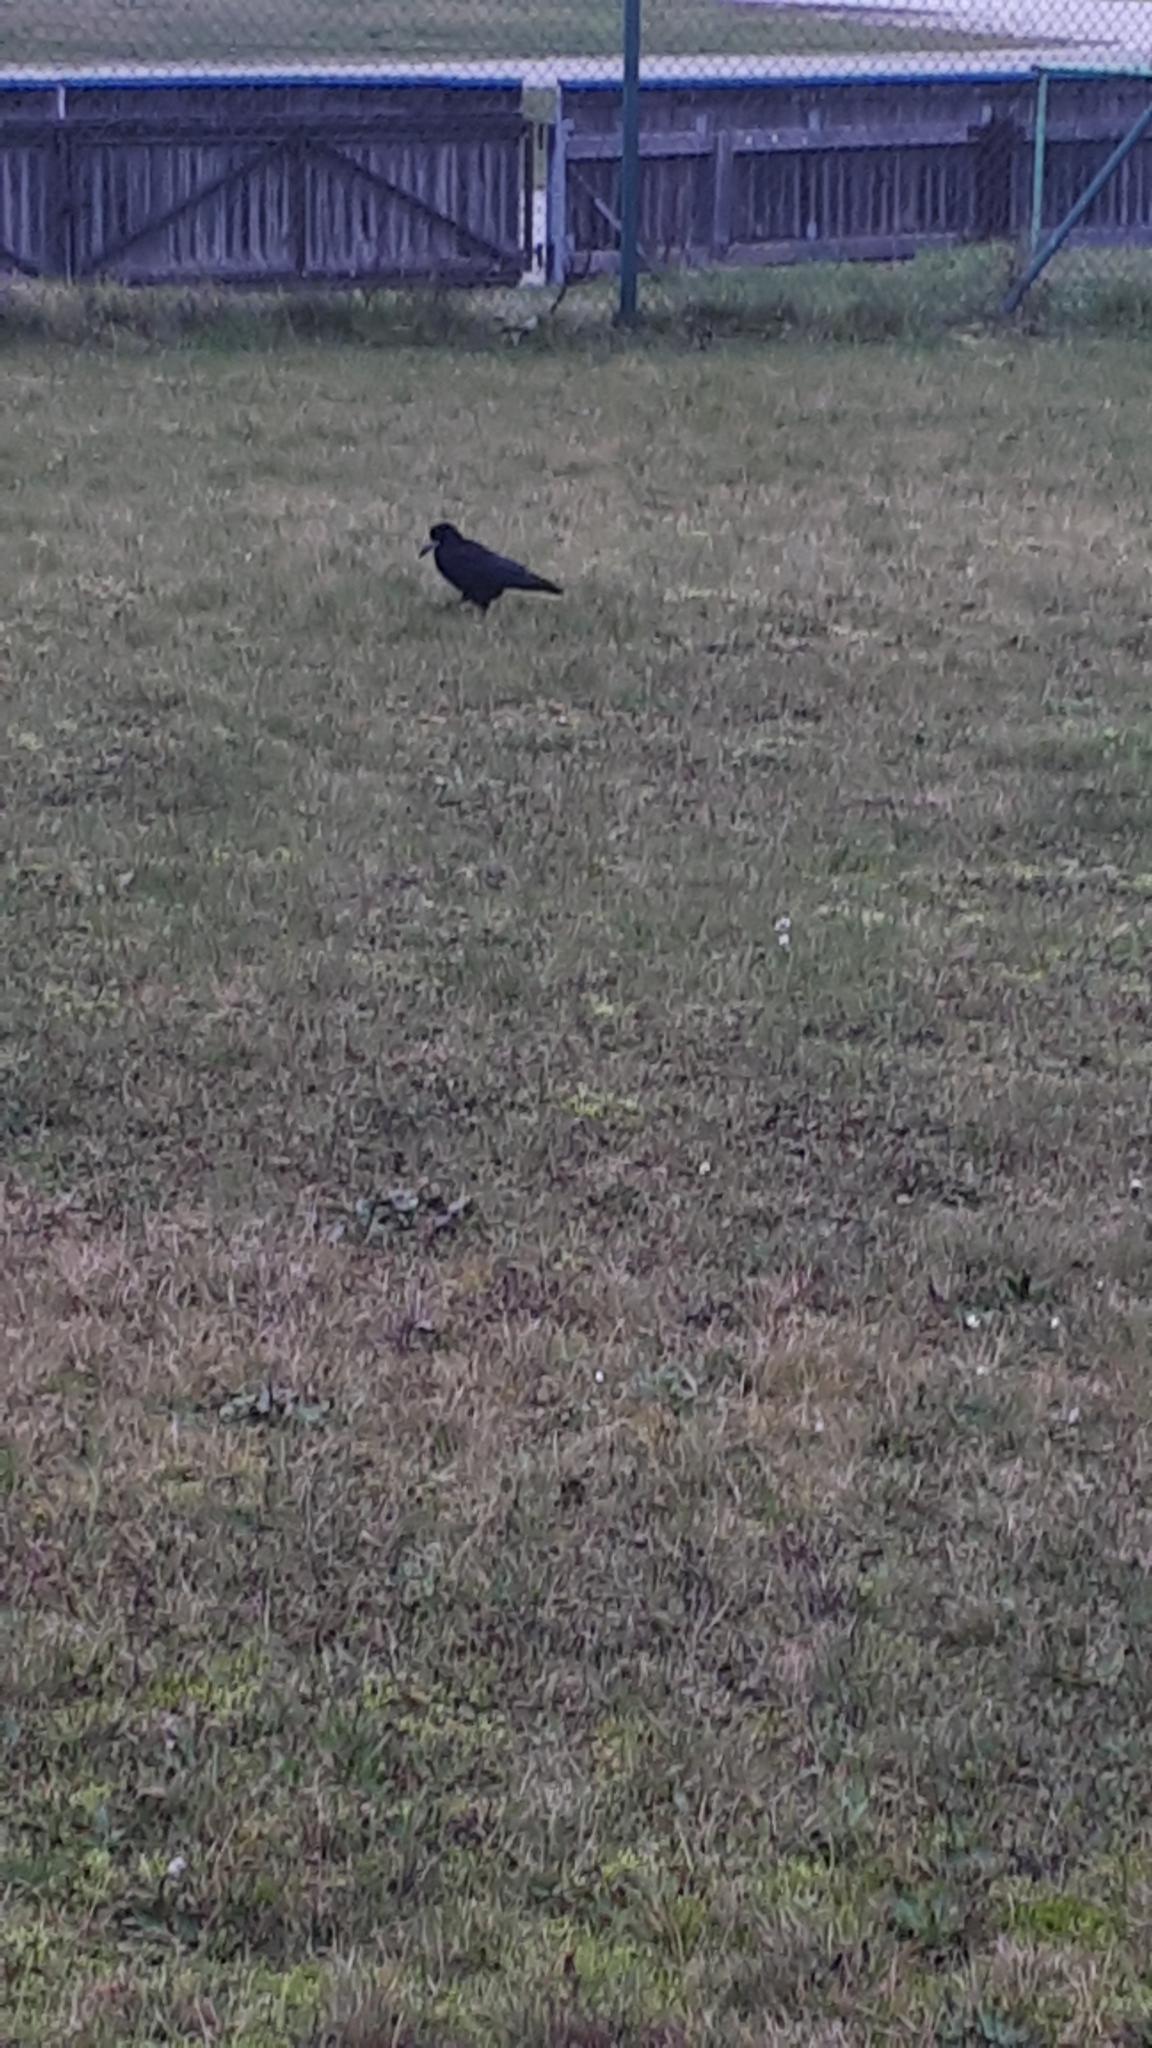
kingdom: Animalia
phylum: Chordata
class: Aves
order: Passeriformes
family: Corvidae
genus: Corvus
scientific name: Corvus frugilegus
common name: Rook
